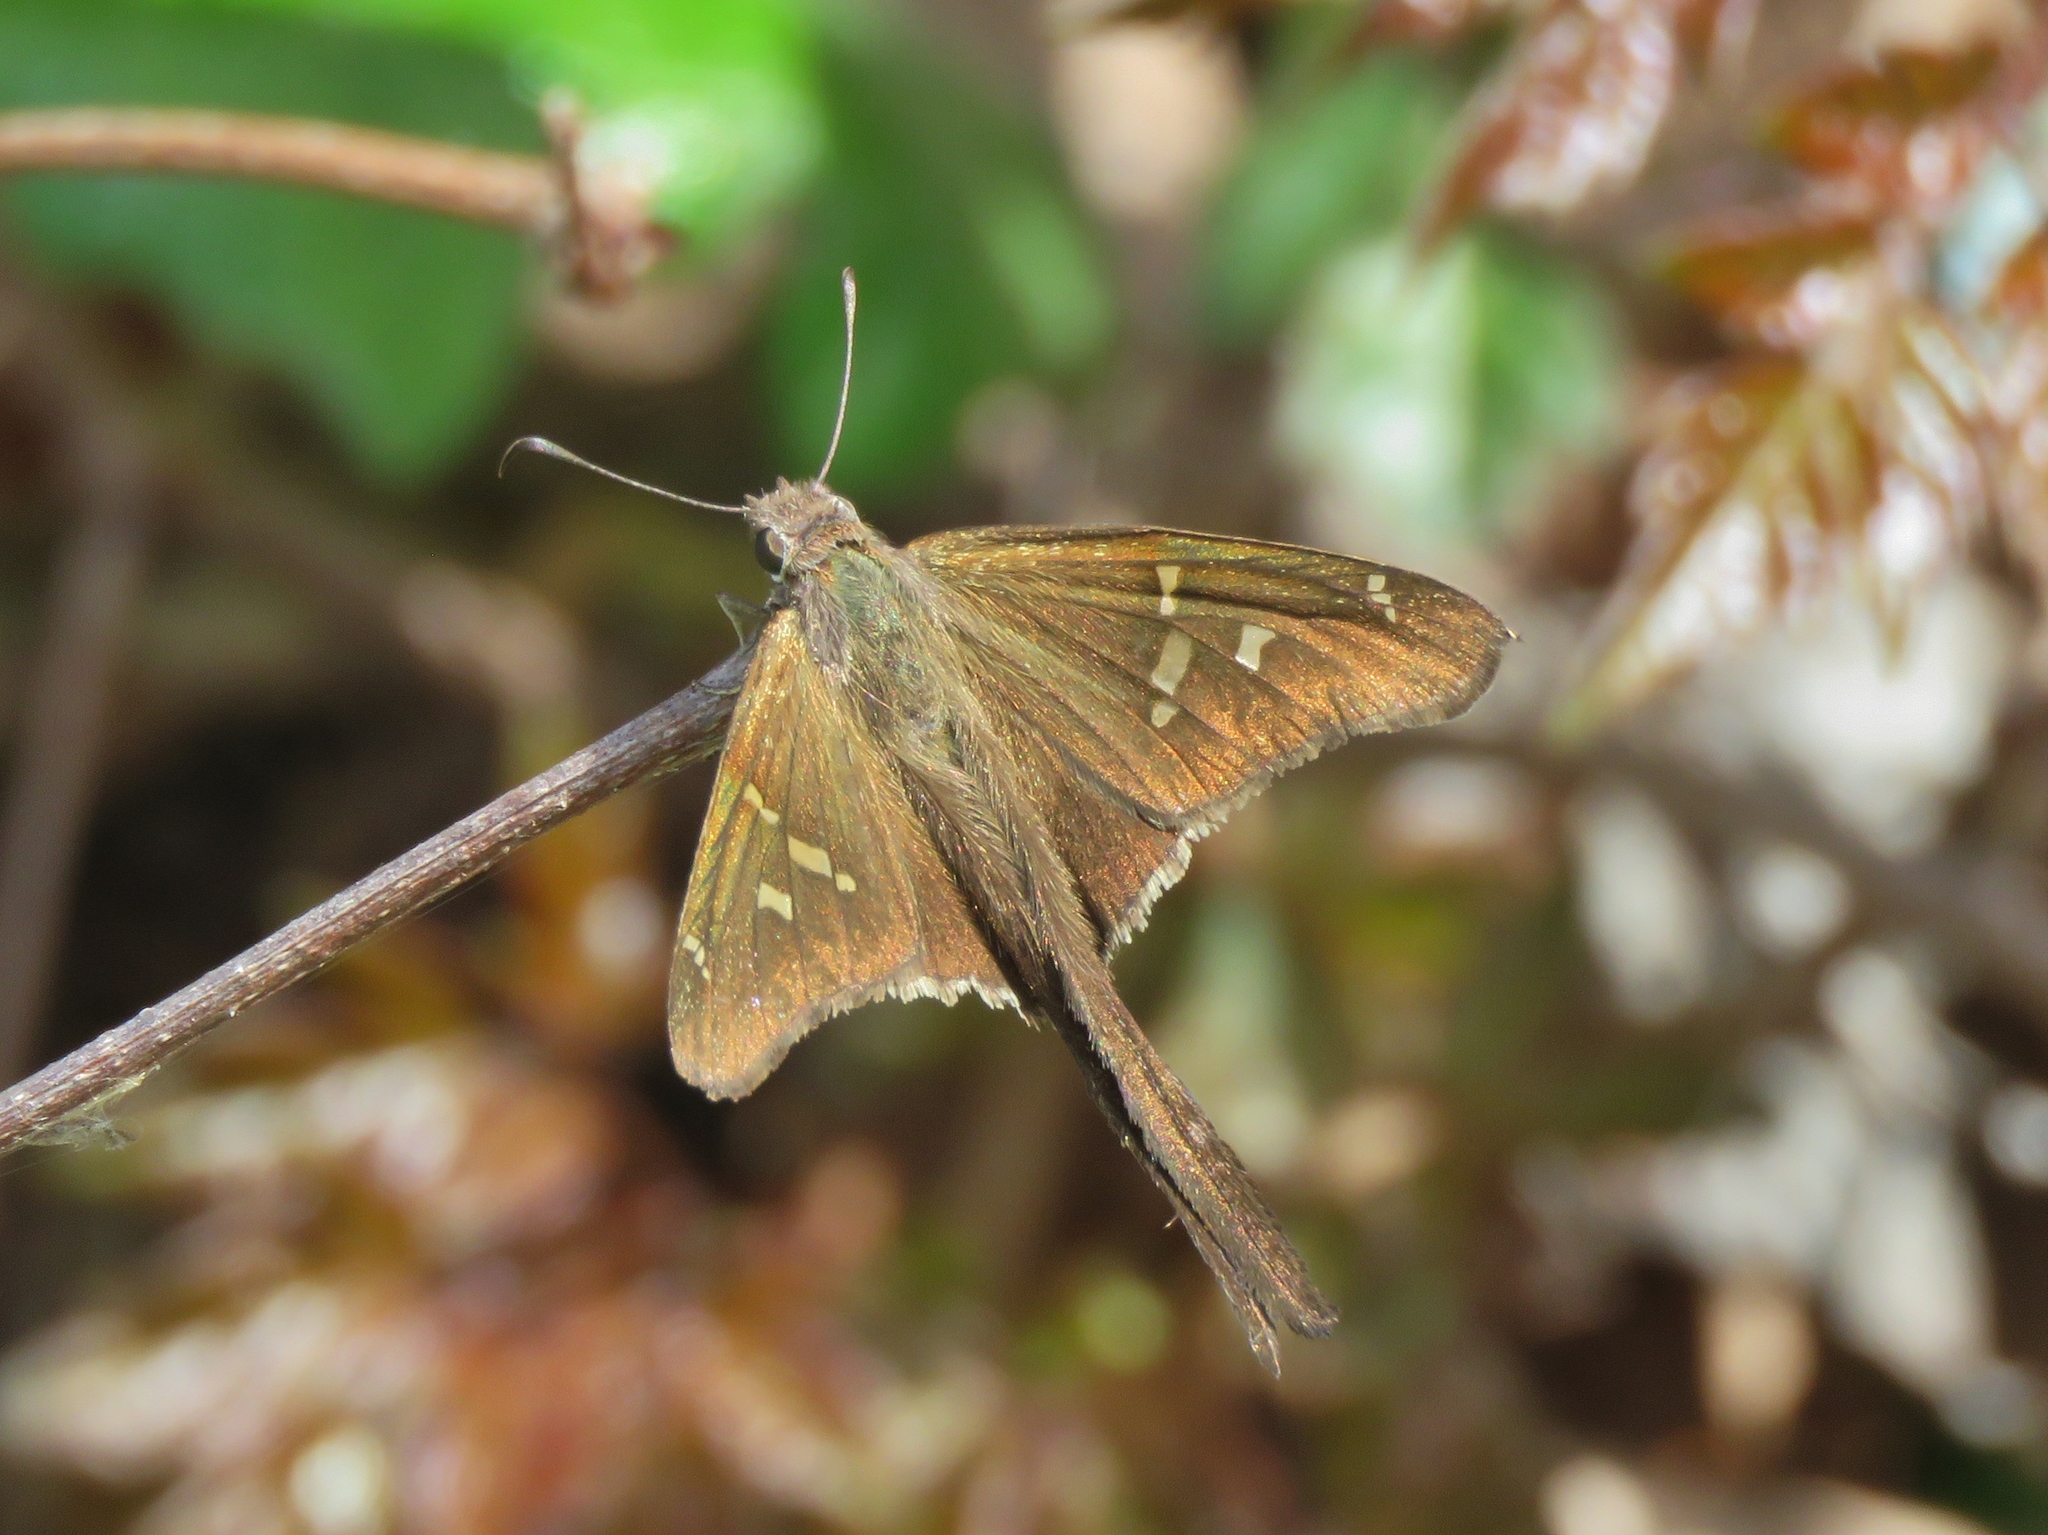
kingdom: Animalia
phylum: Arthropoda
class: Insecta
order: Lepidoptera
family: Hesperiidae
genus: Chioides
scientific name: Chioides catillus
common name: Silverbanded skipper
